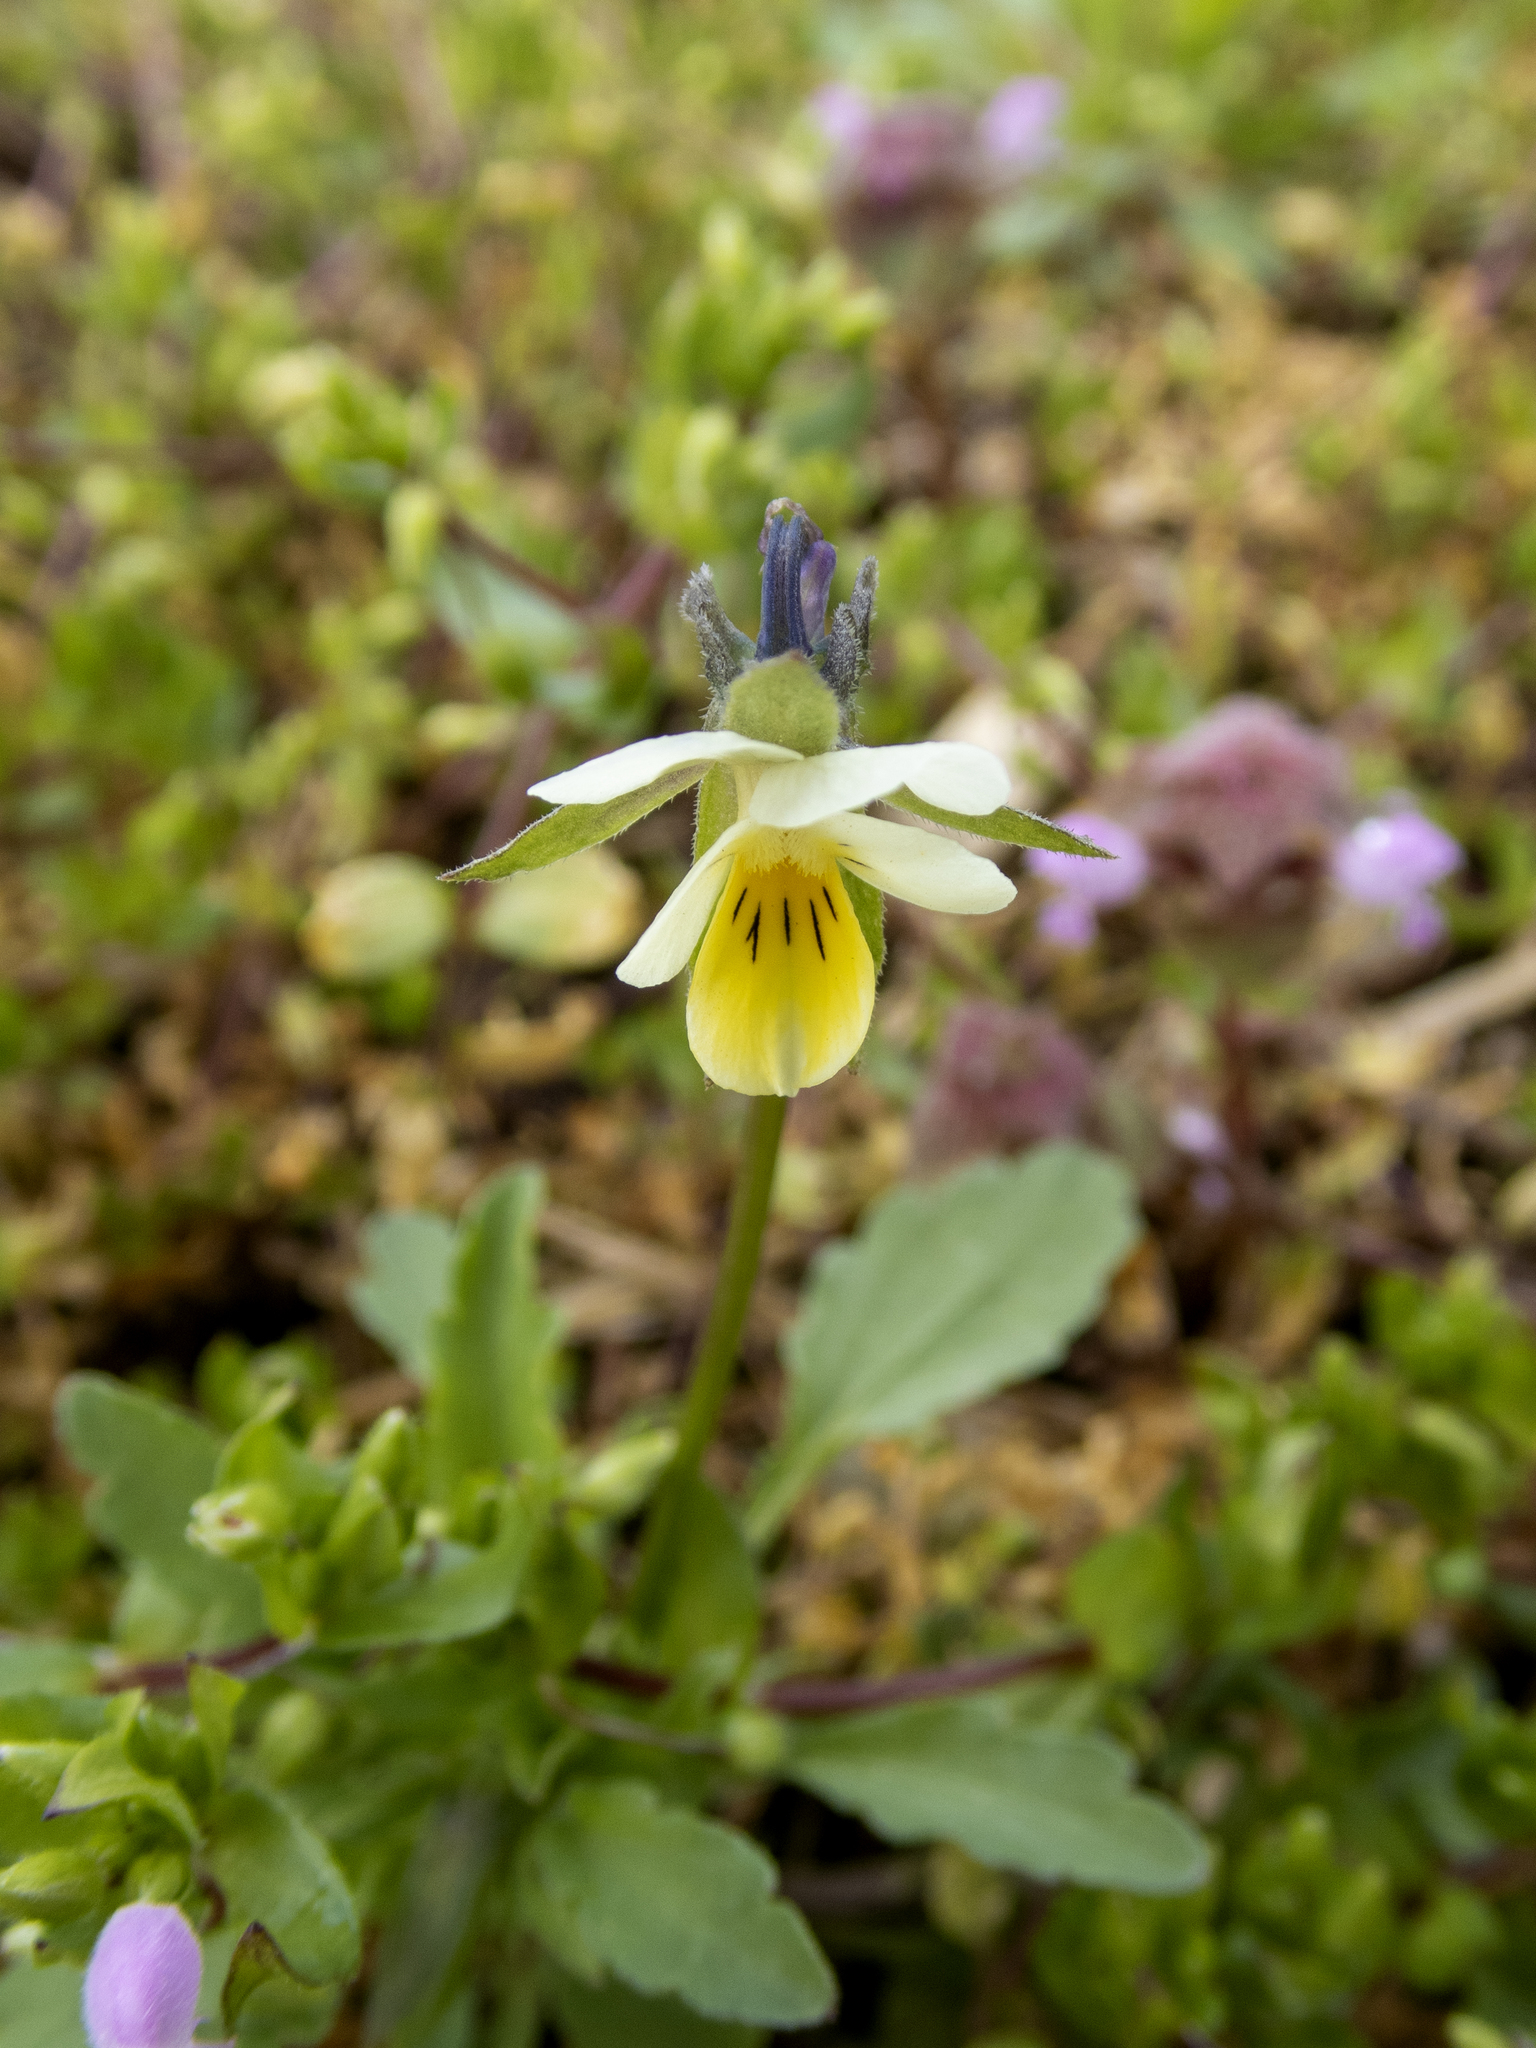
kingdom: Plantae
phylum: Tracheophyta
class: Magnoliopsida
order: Malpighiales
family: Violaceae
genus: Viola
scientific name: Viola arvensis
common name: Field pansy
